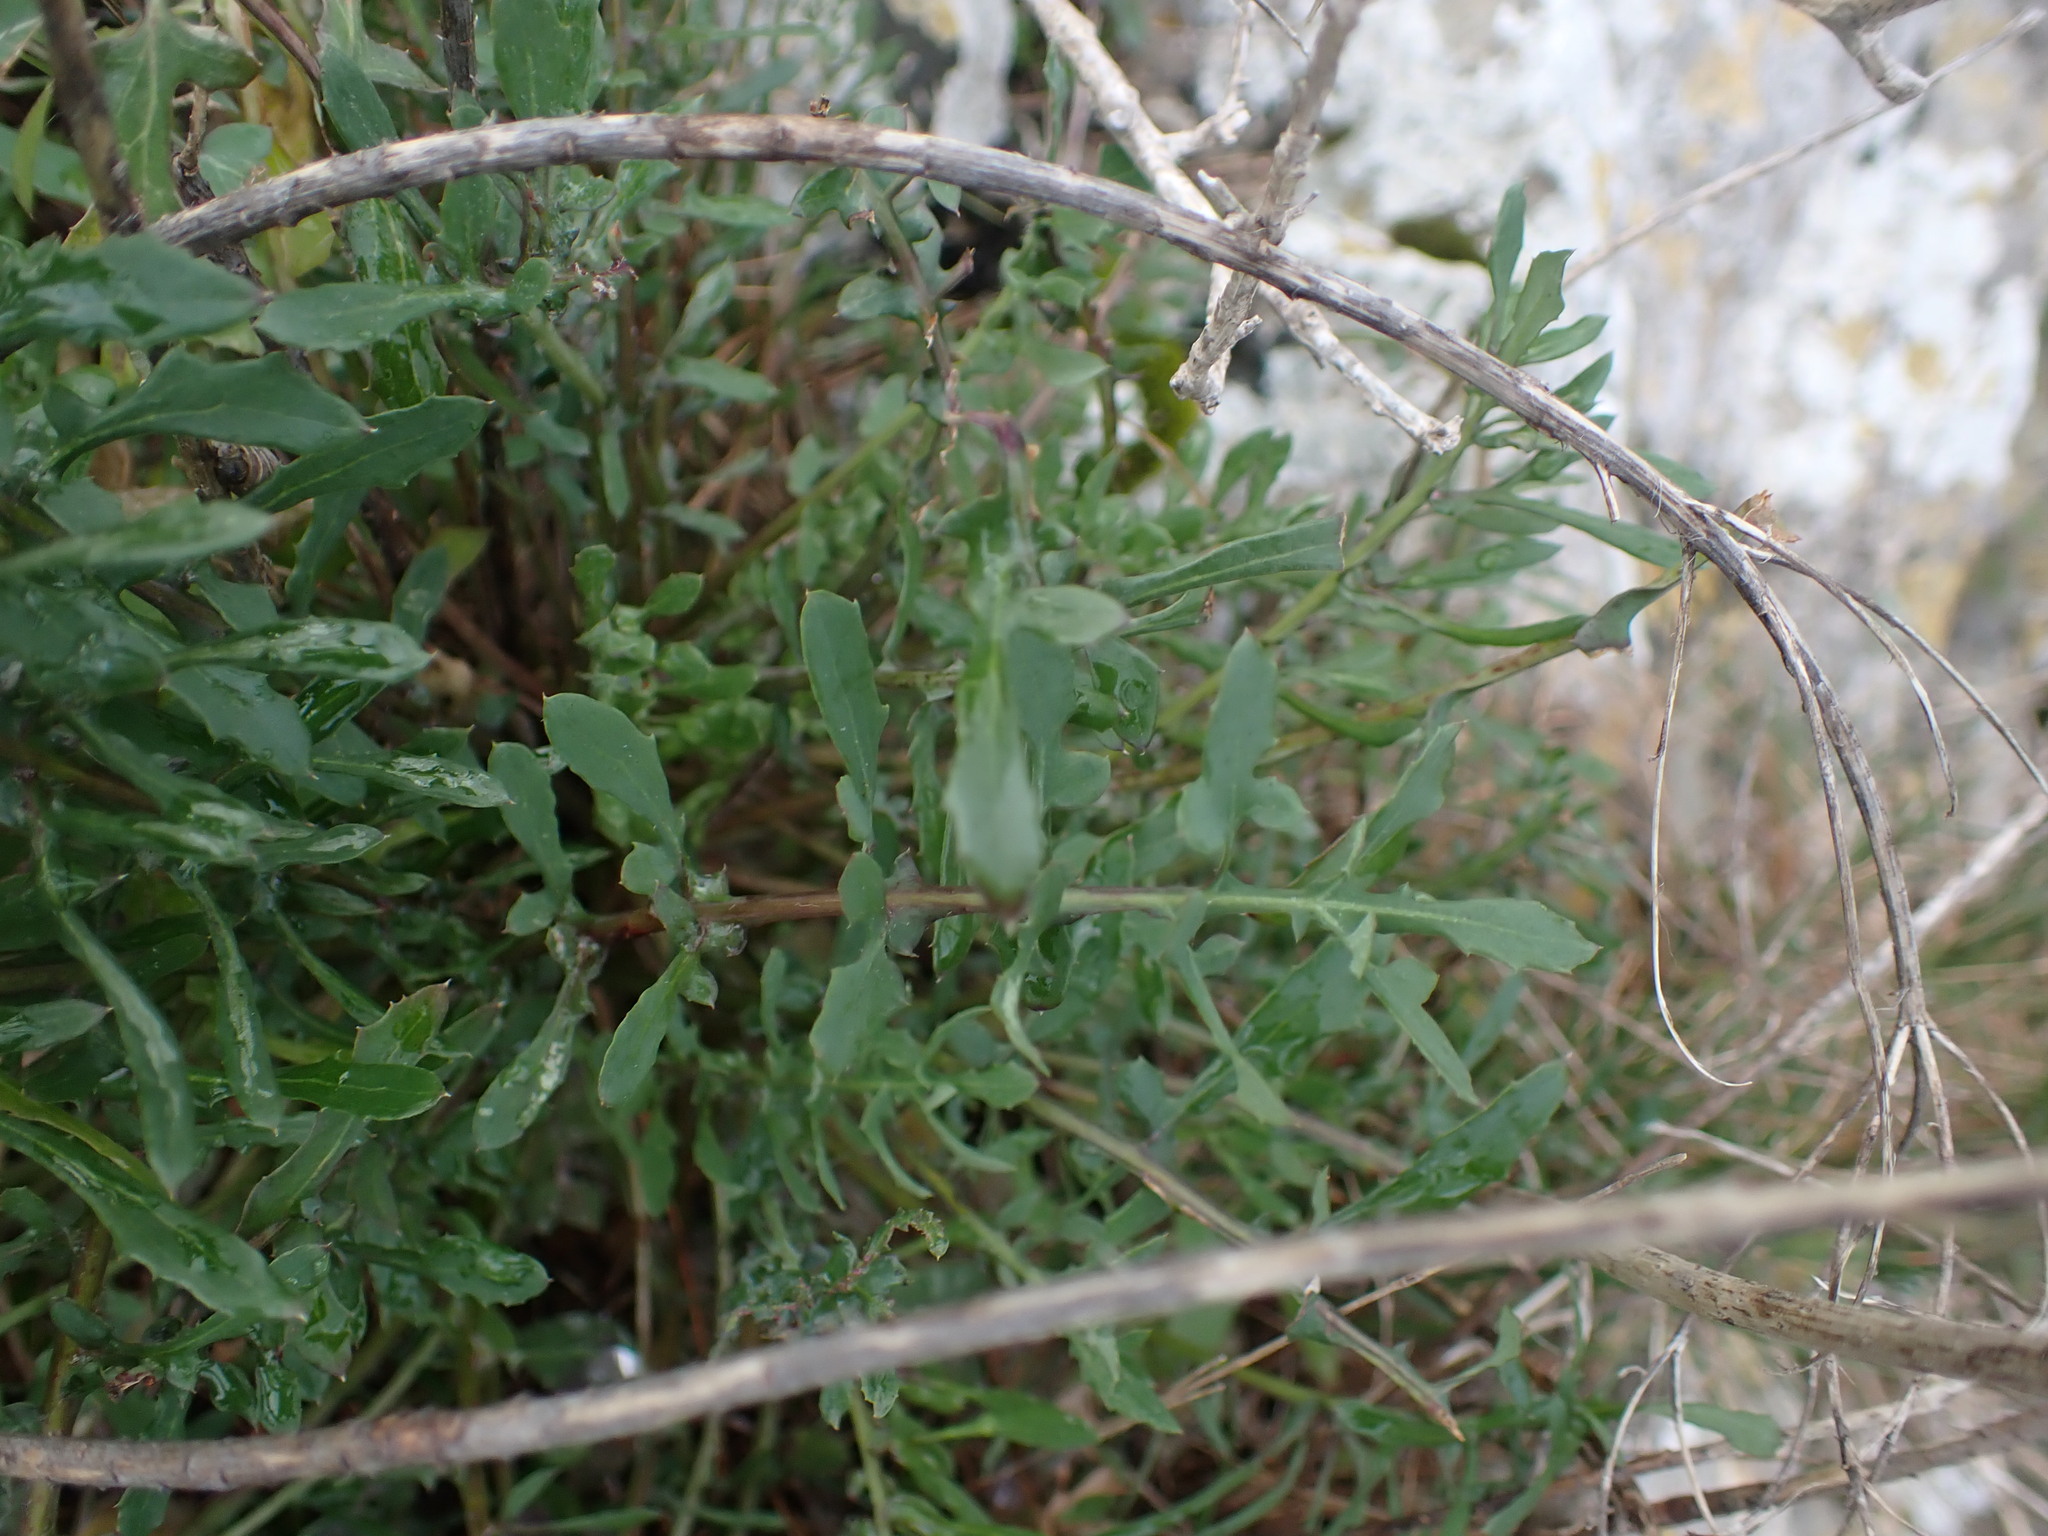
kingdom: Plantae
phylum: Tracheophyta
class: Magnoliopsida
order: Asterales
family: Asteraceae
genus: Sonchus
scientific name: Sonchus tenerrimus
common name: Clammy sowthistle
